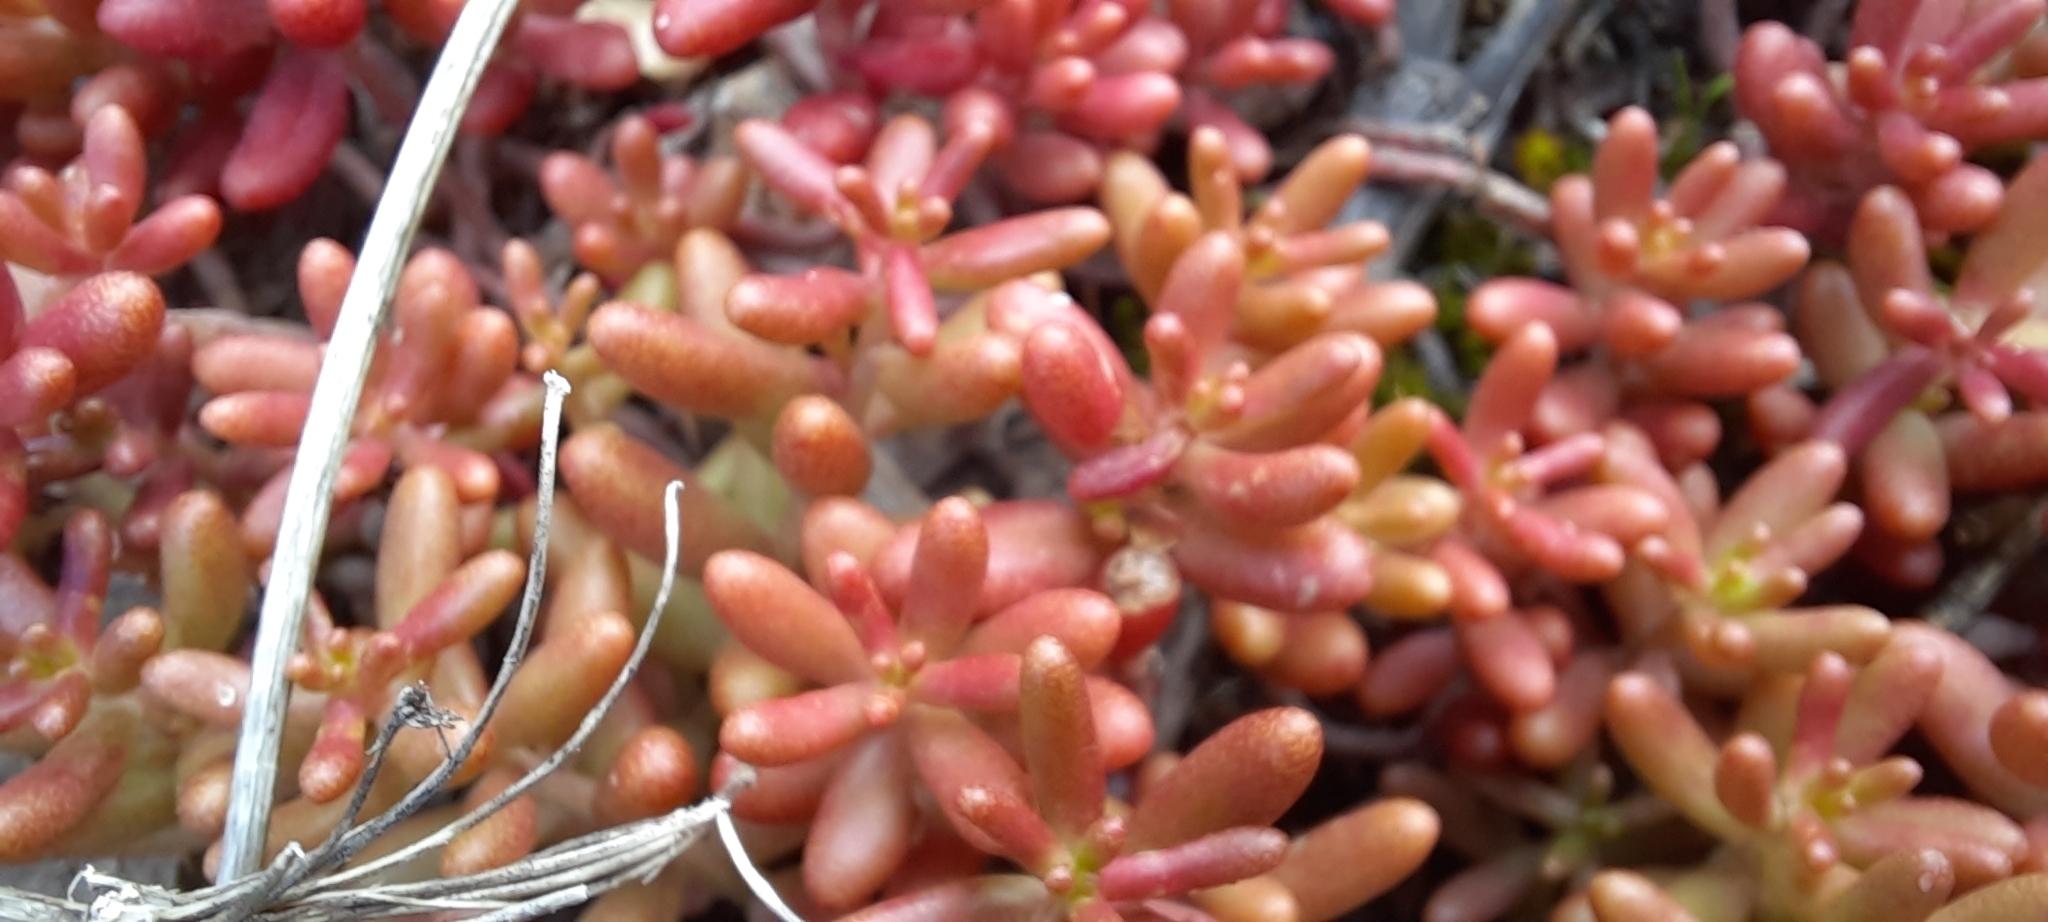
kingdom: Plantae
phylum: Tracheophyta
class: Magnoliopsida
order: Saxifragales
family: Crassulaceae
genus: Sedum
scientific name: Sedum album
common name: White stonecrop
